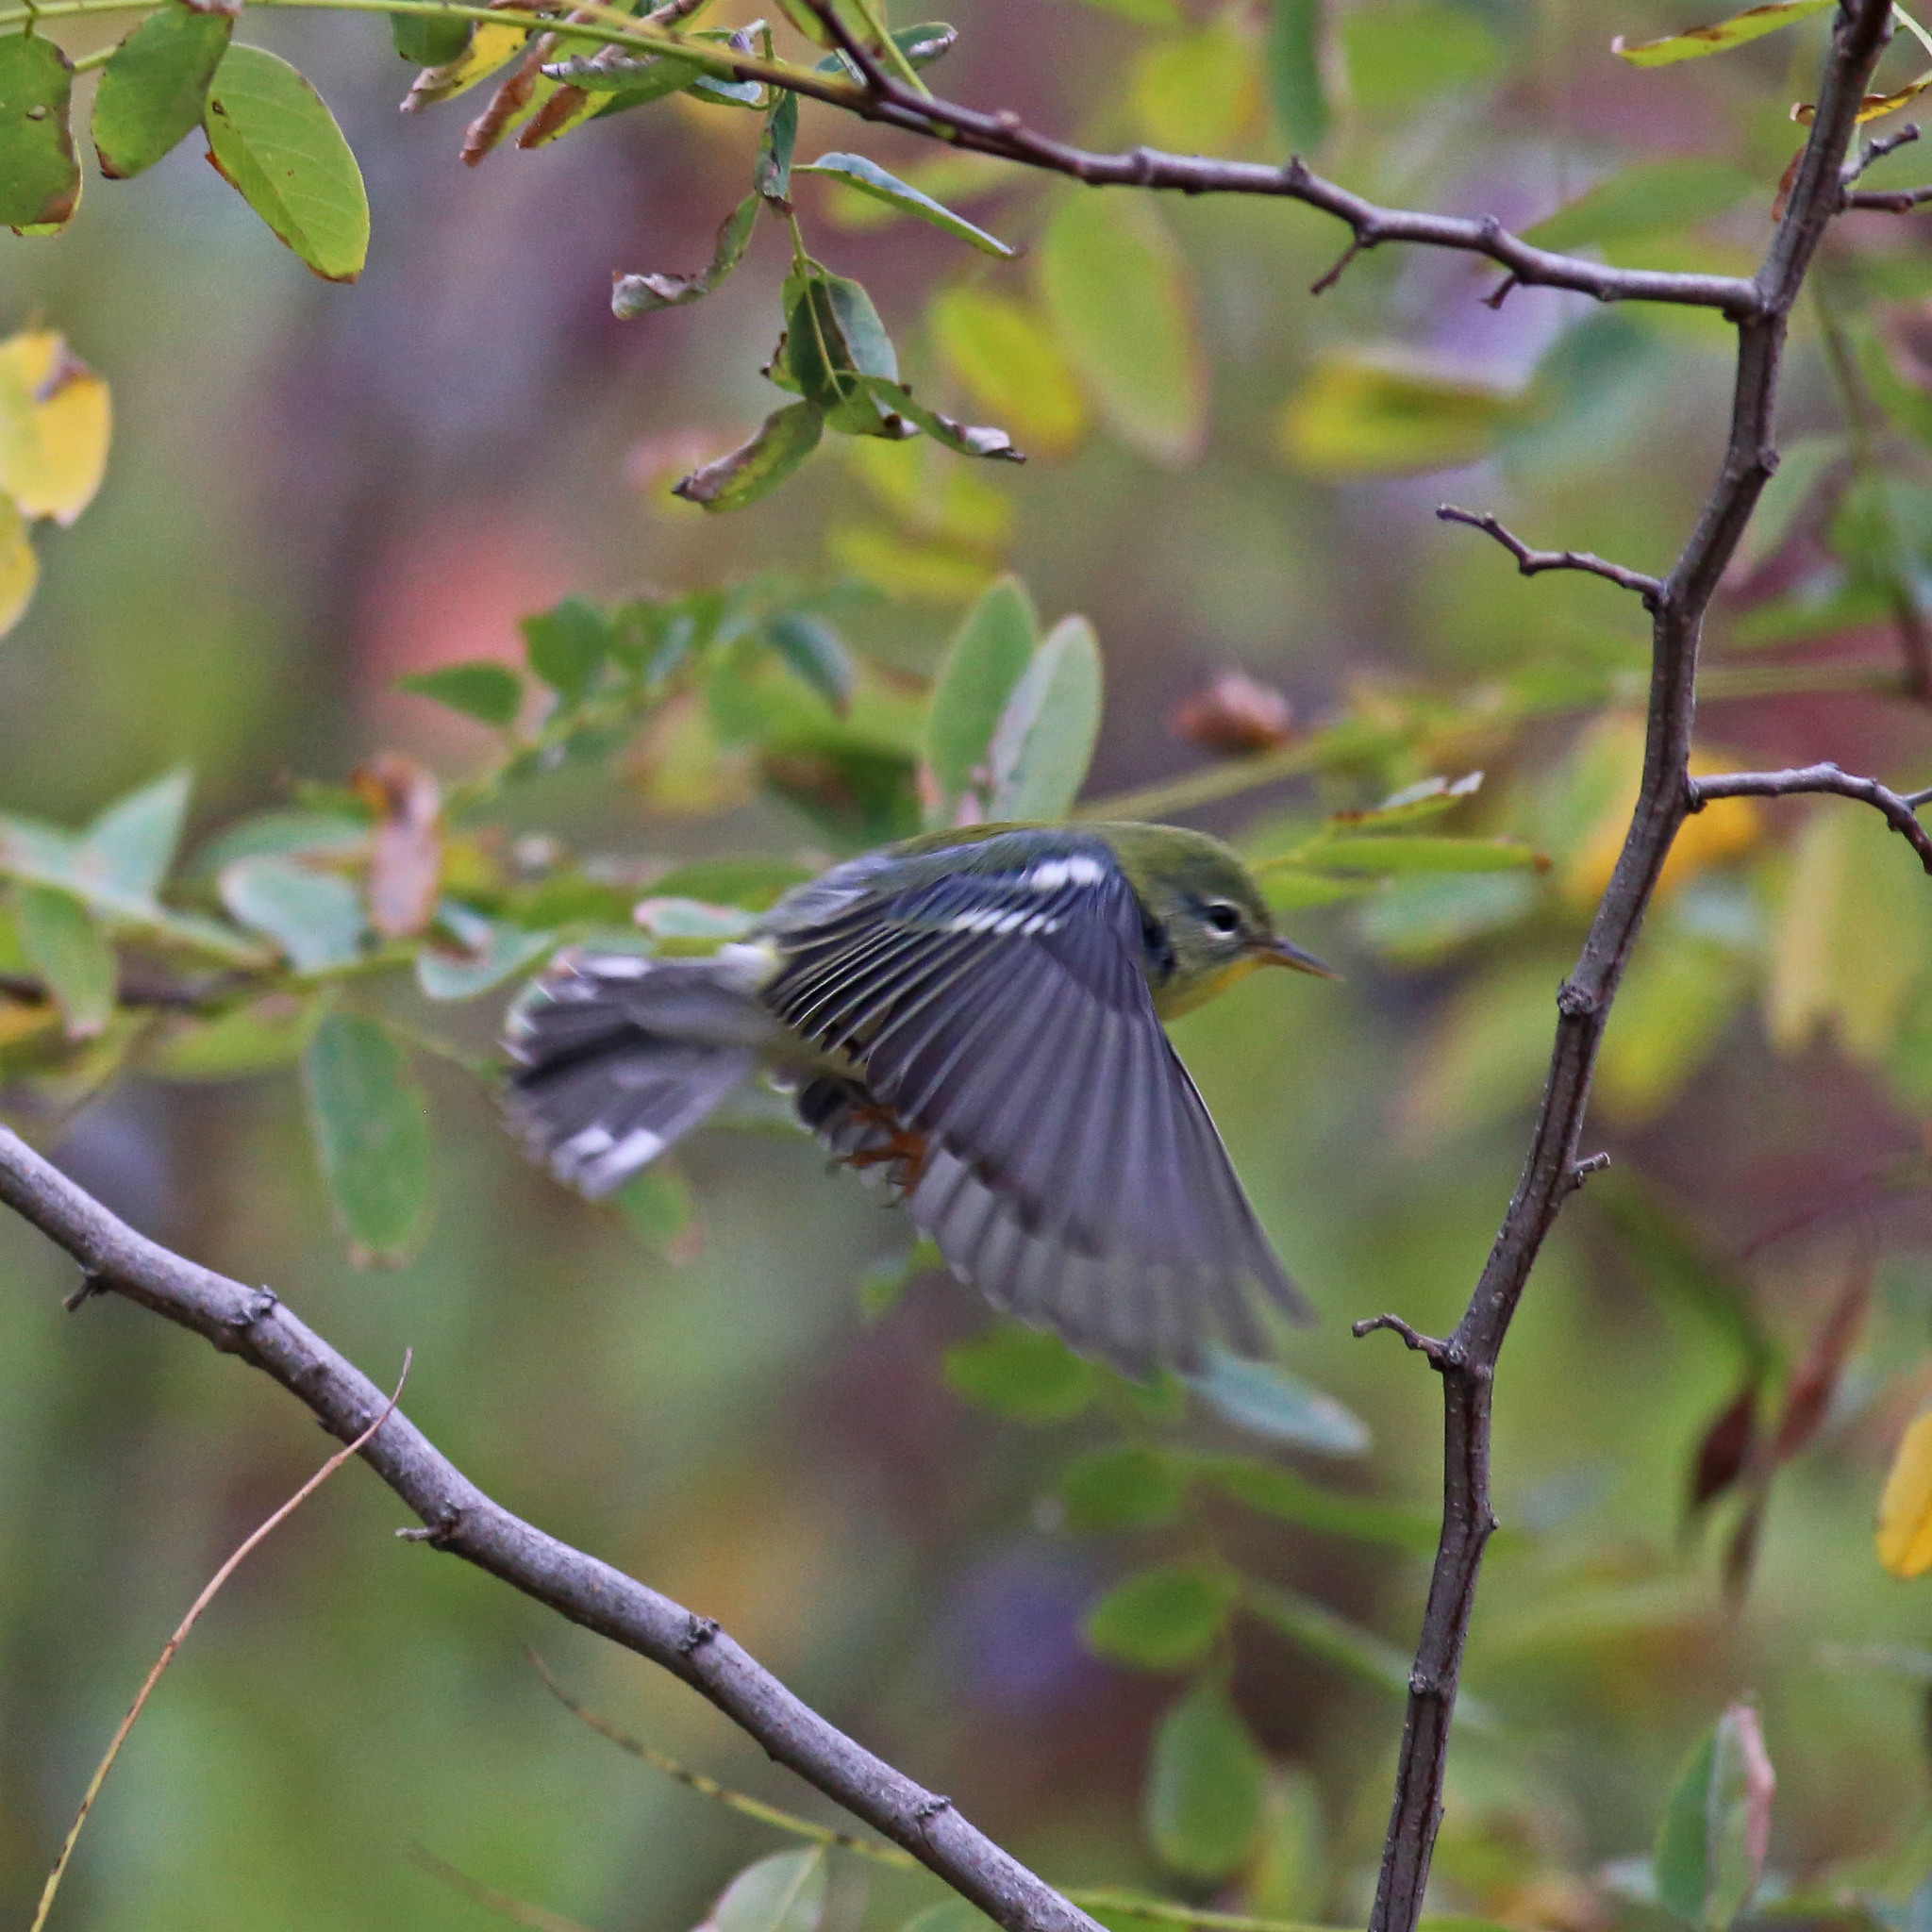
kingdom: Animalia
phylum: Chordata
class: Aves
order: Passeriformes
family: Parulidae
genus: Setophaga
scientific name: Setophaga americana
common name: Northern parula
